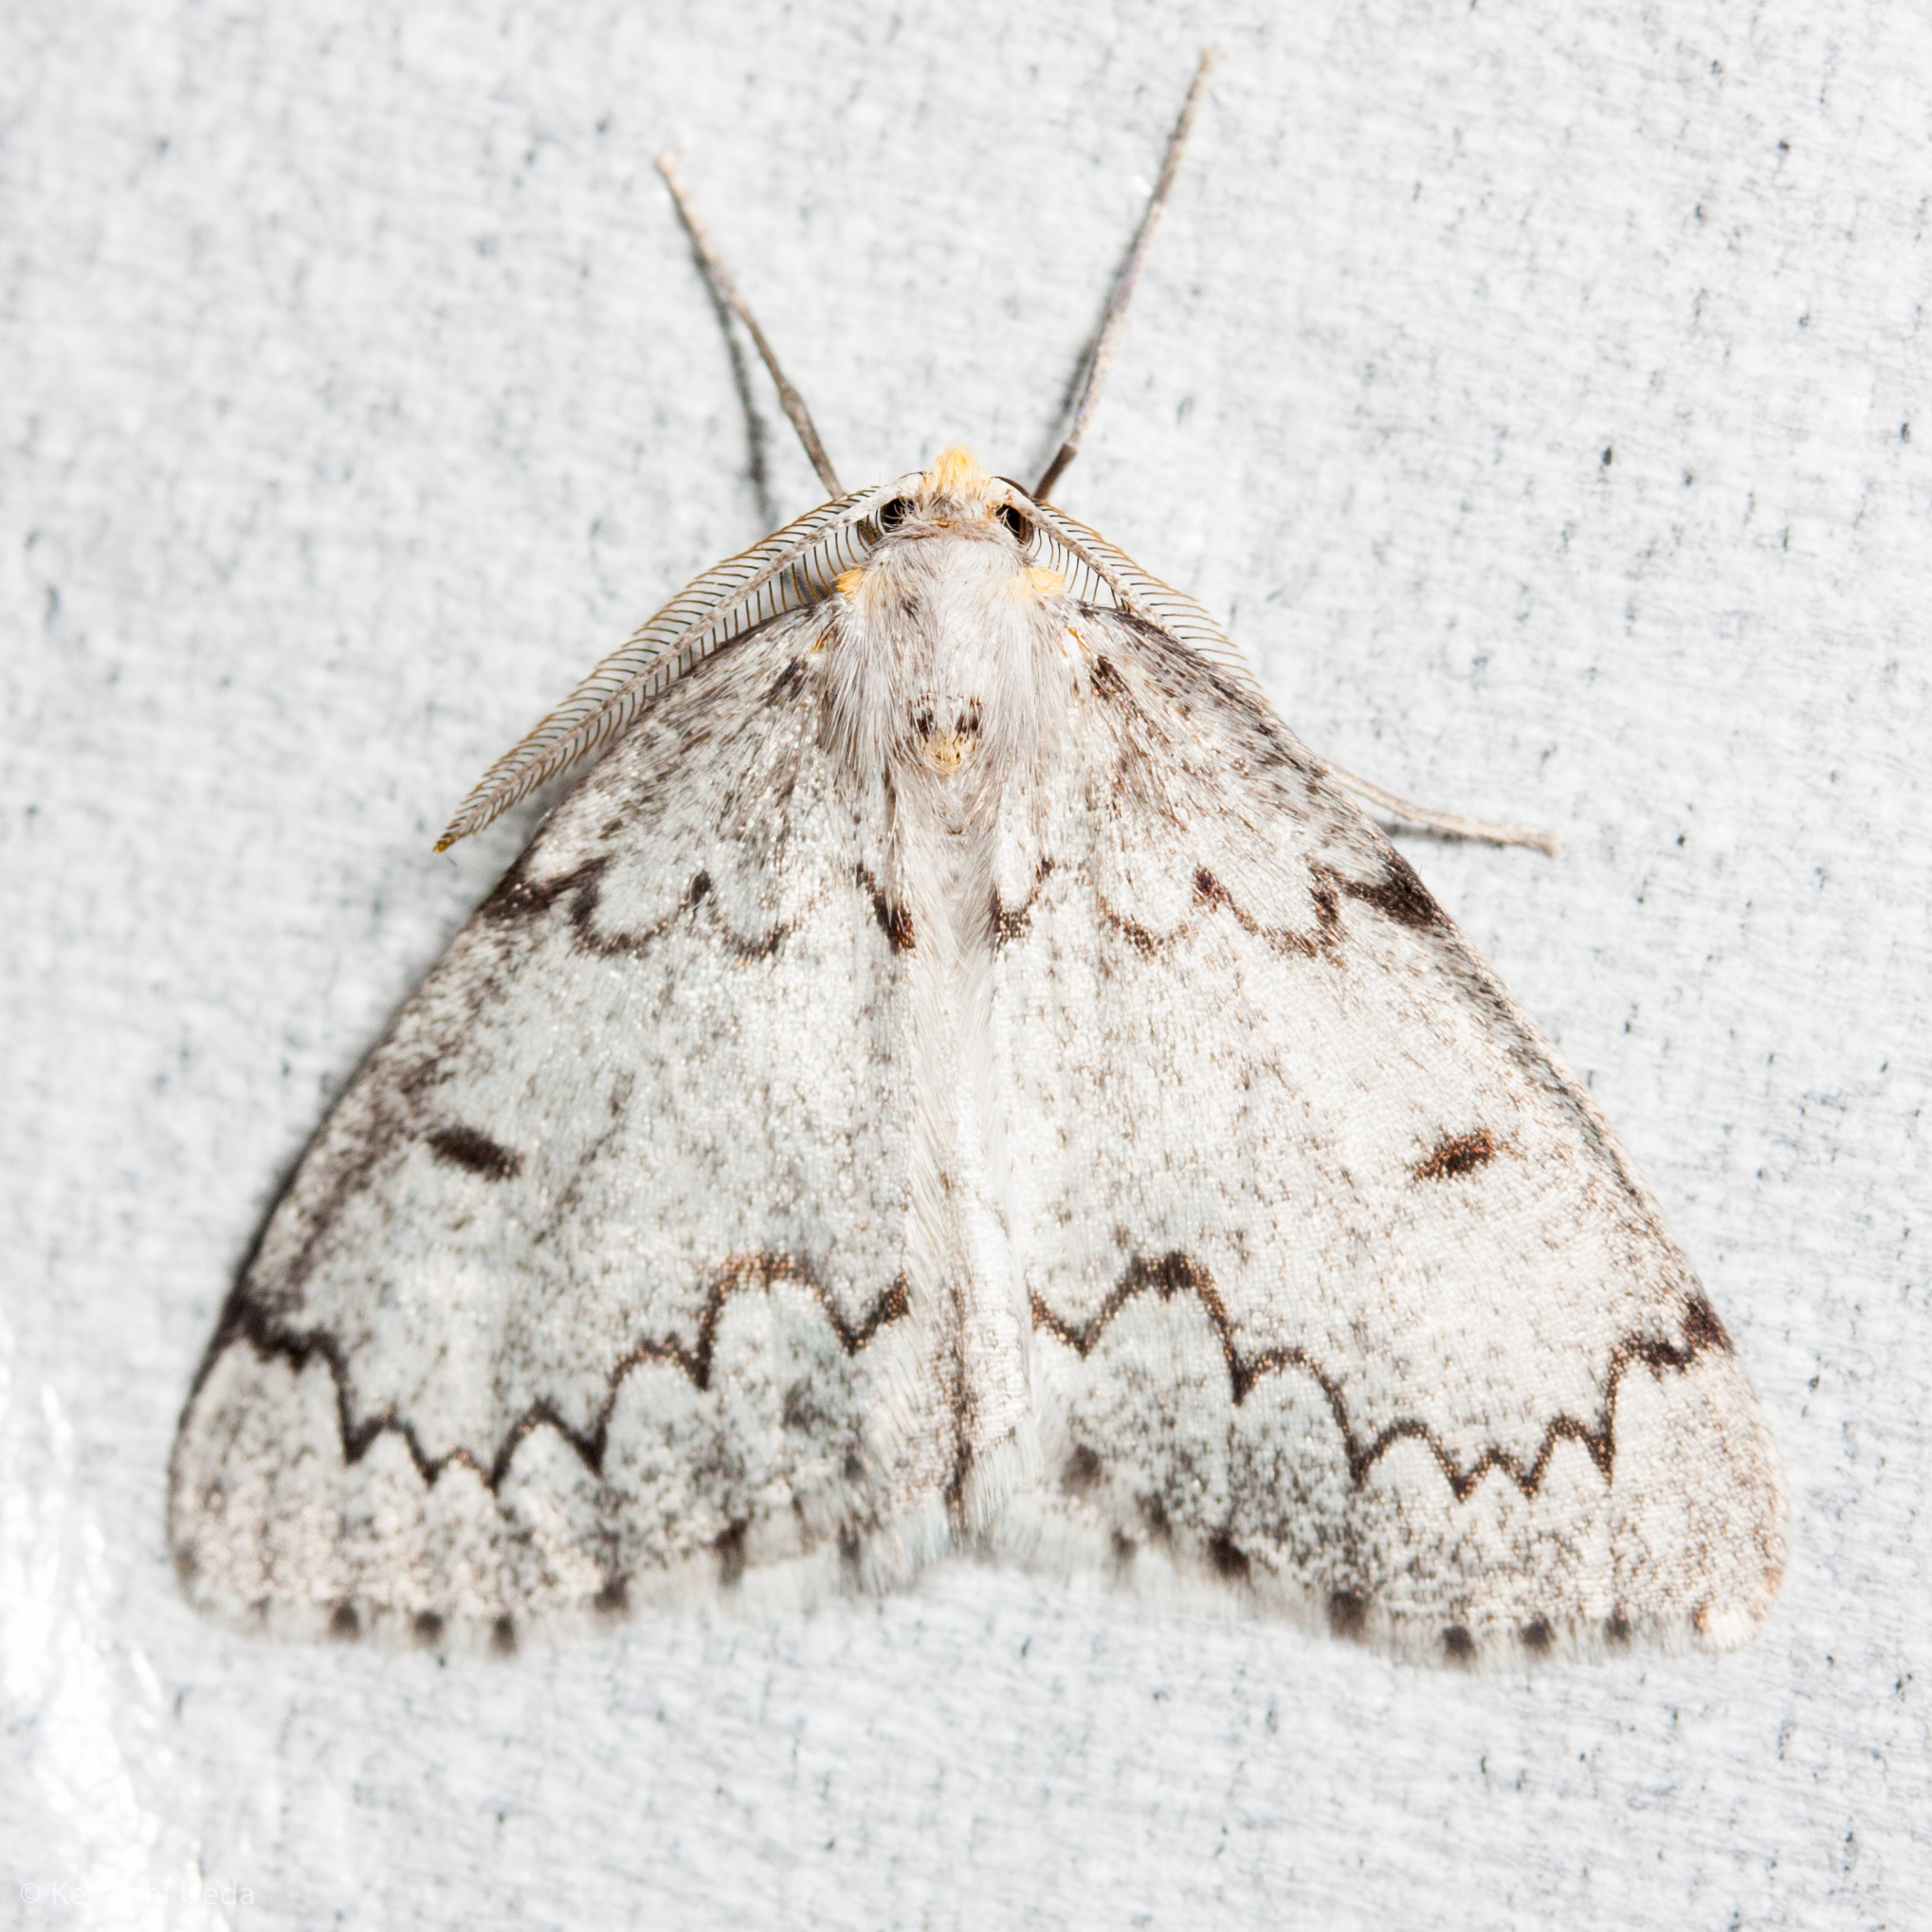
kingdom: Animalia
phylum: Arthropoda
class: Insecta
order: Lepidoptera
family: Geometridae
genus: Cingilia
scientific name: Cingilia catenaria
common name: Chain-dotted geometer
